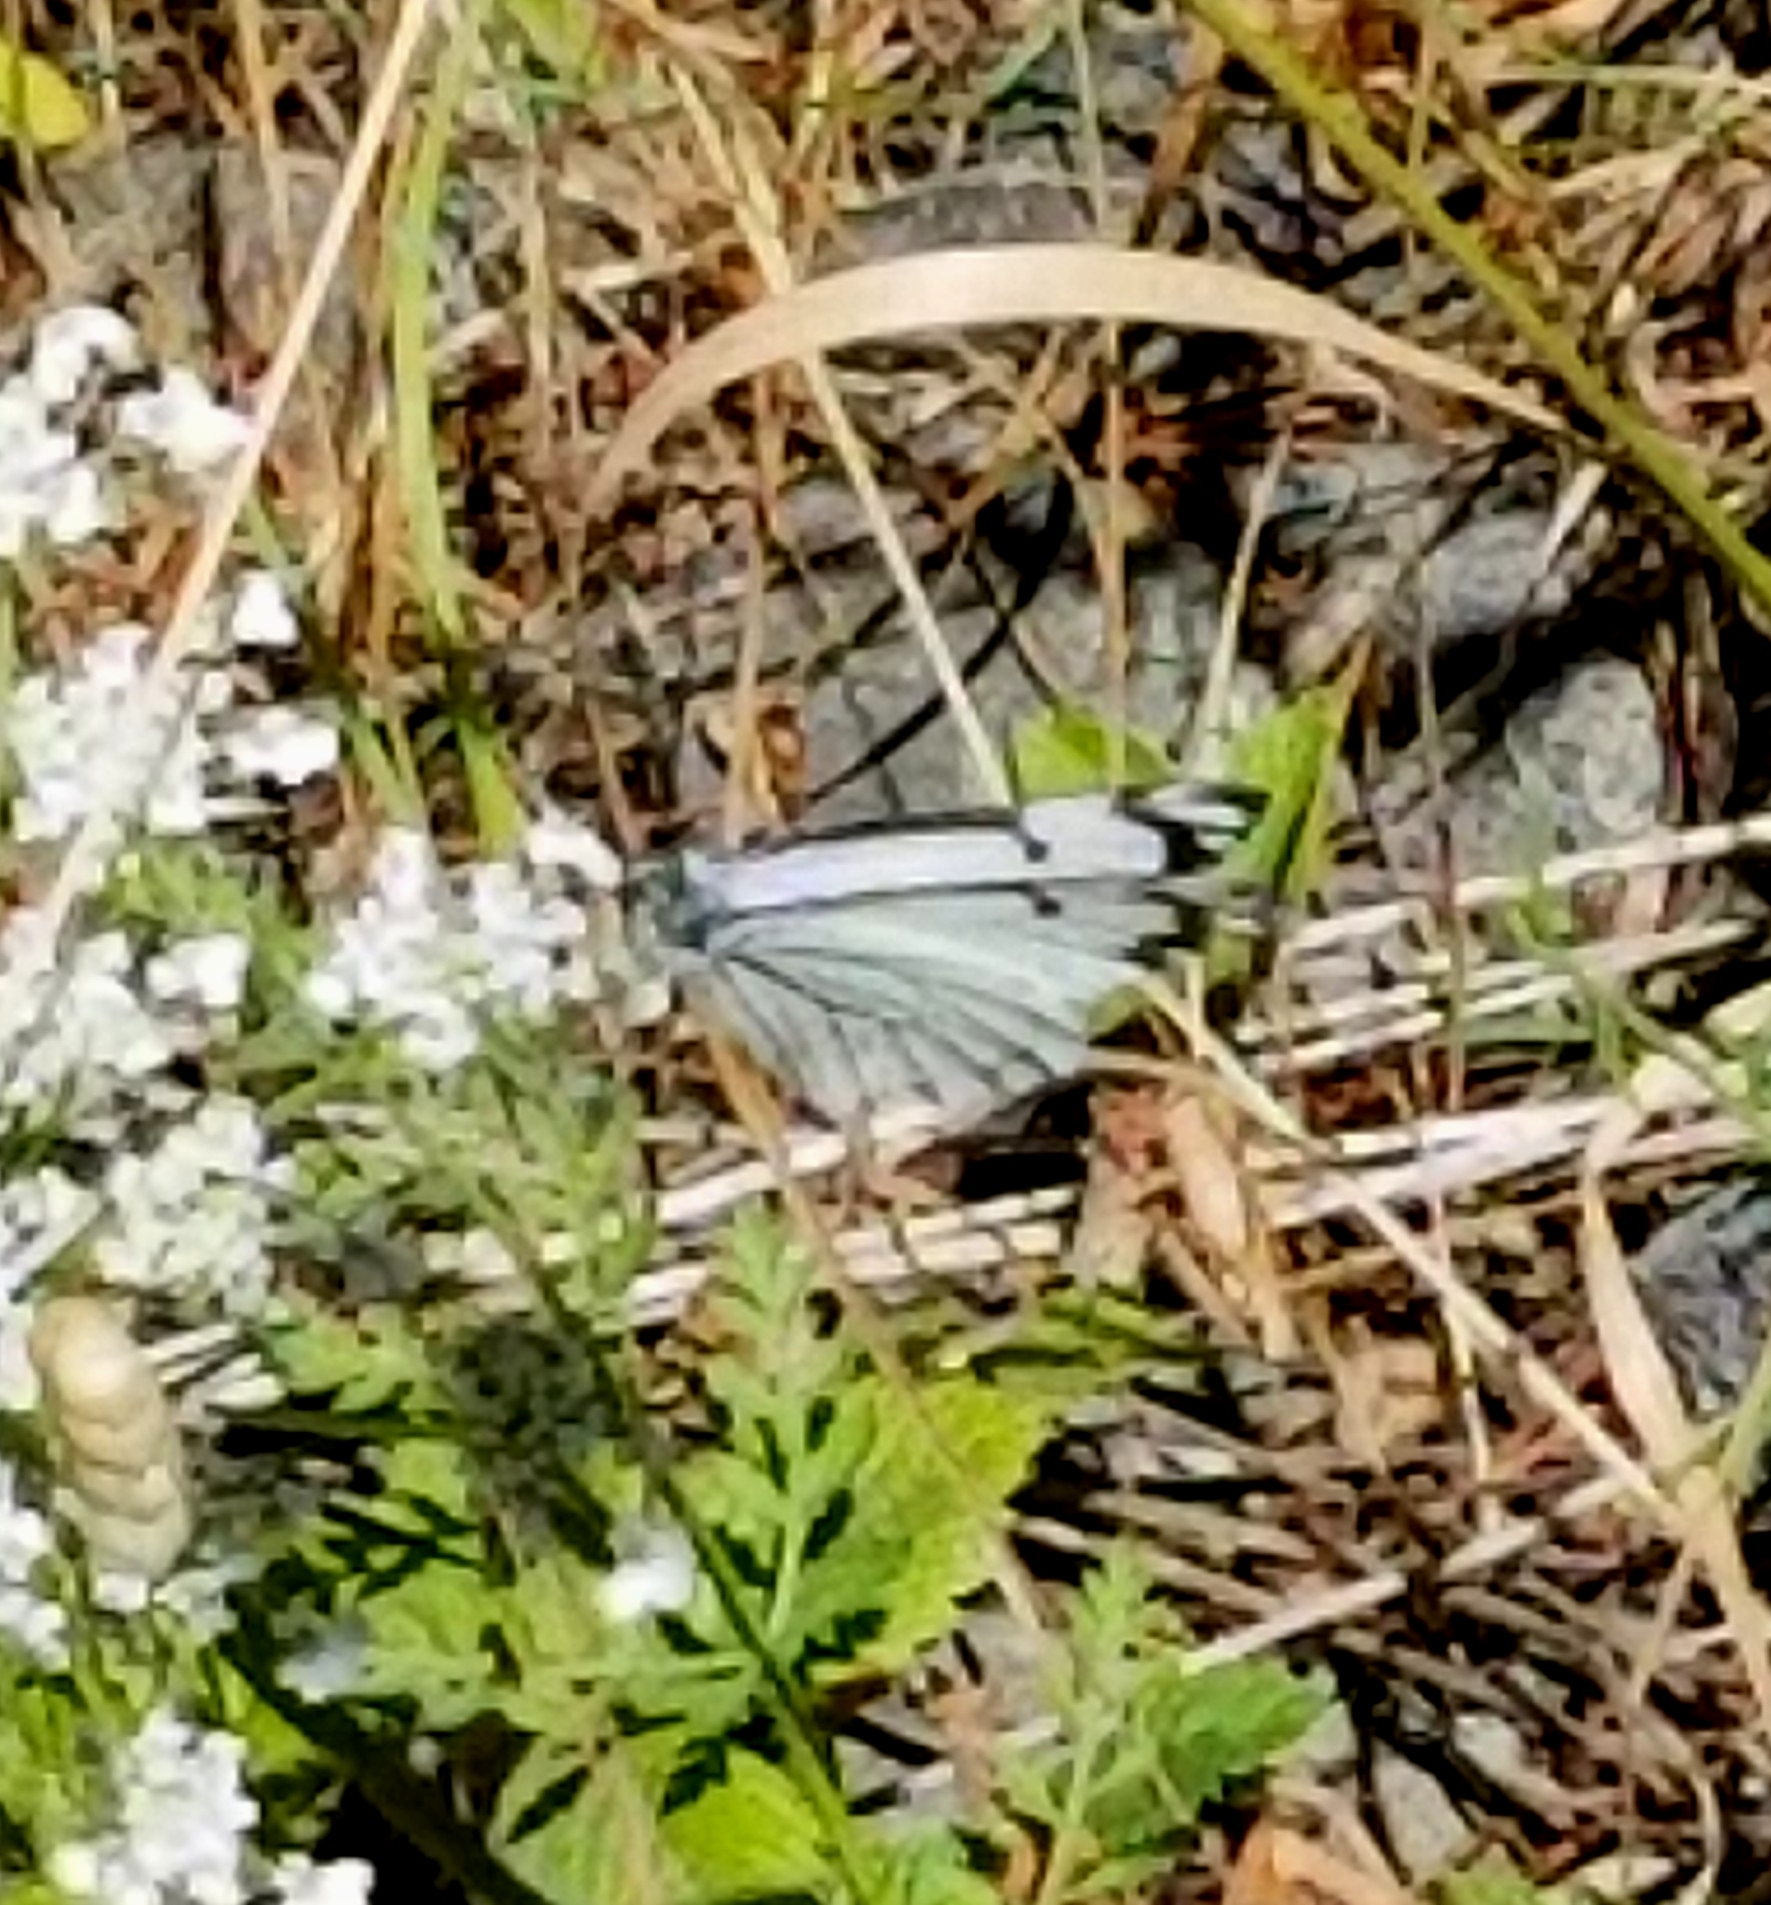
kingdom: Animalia
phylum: Arthropoda
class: Insecta
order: Lepidoptera
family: Pieridae
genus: Neophasia
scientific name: Neophasia menapia
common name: Pine white
